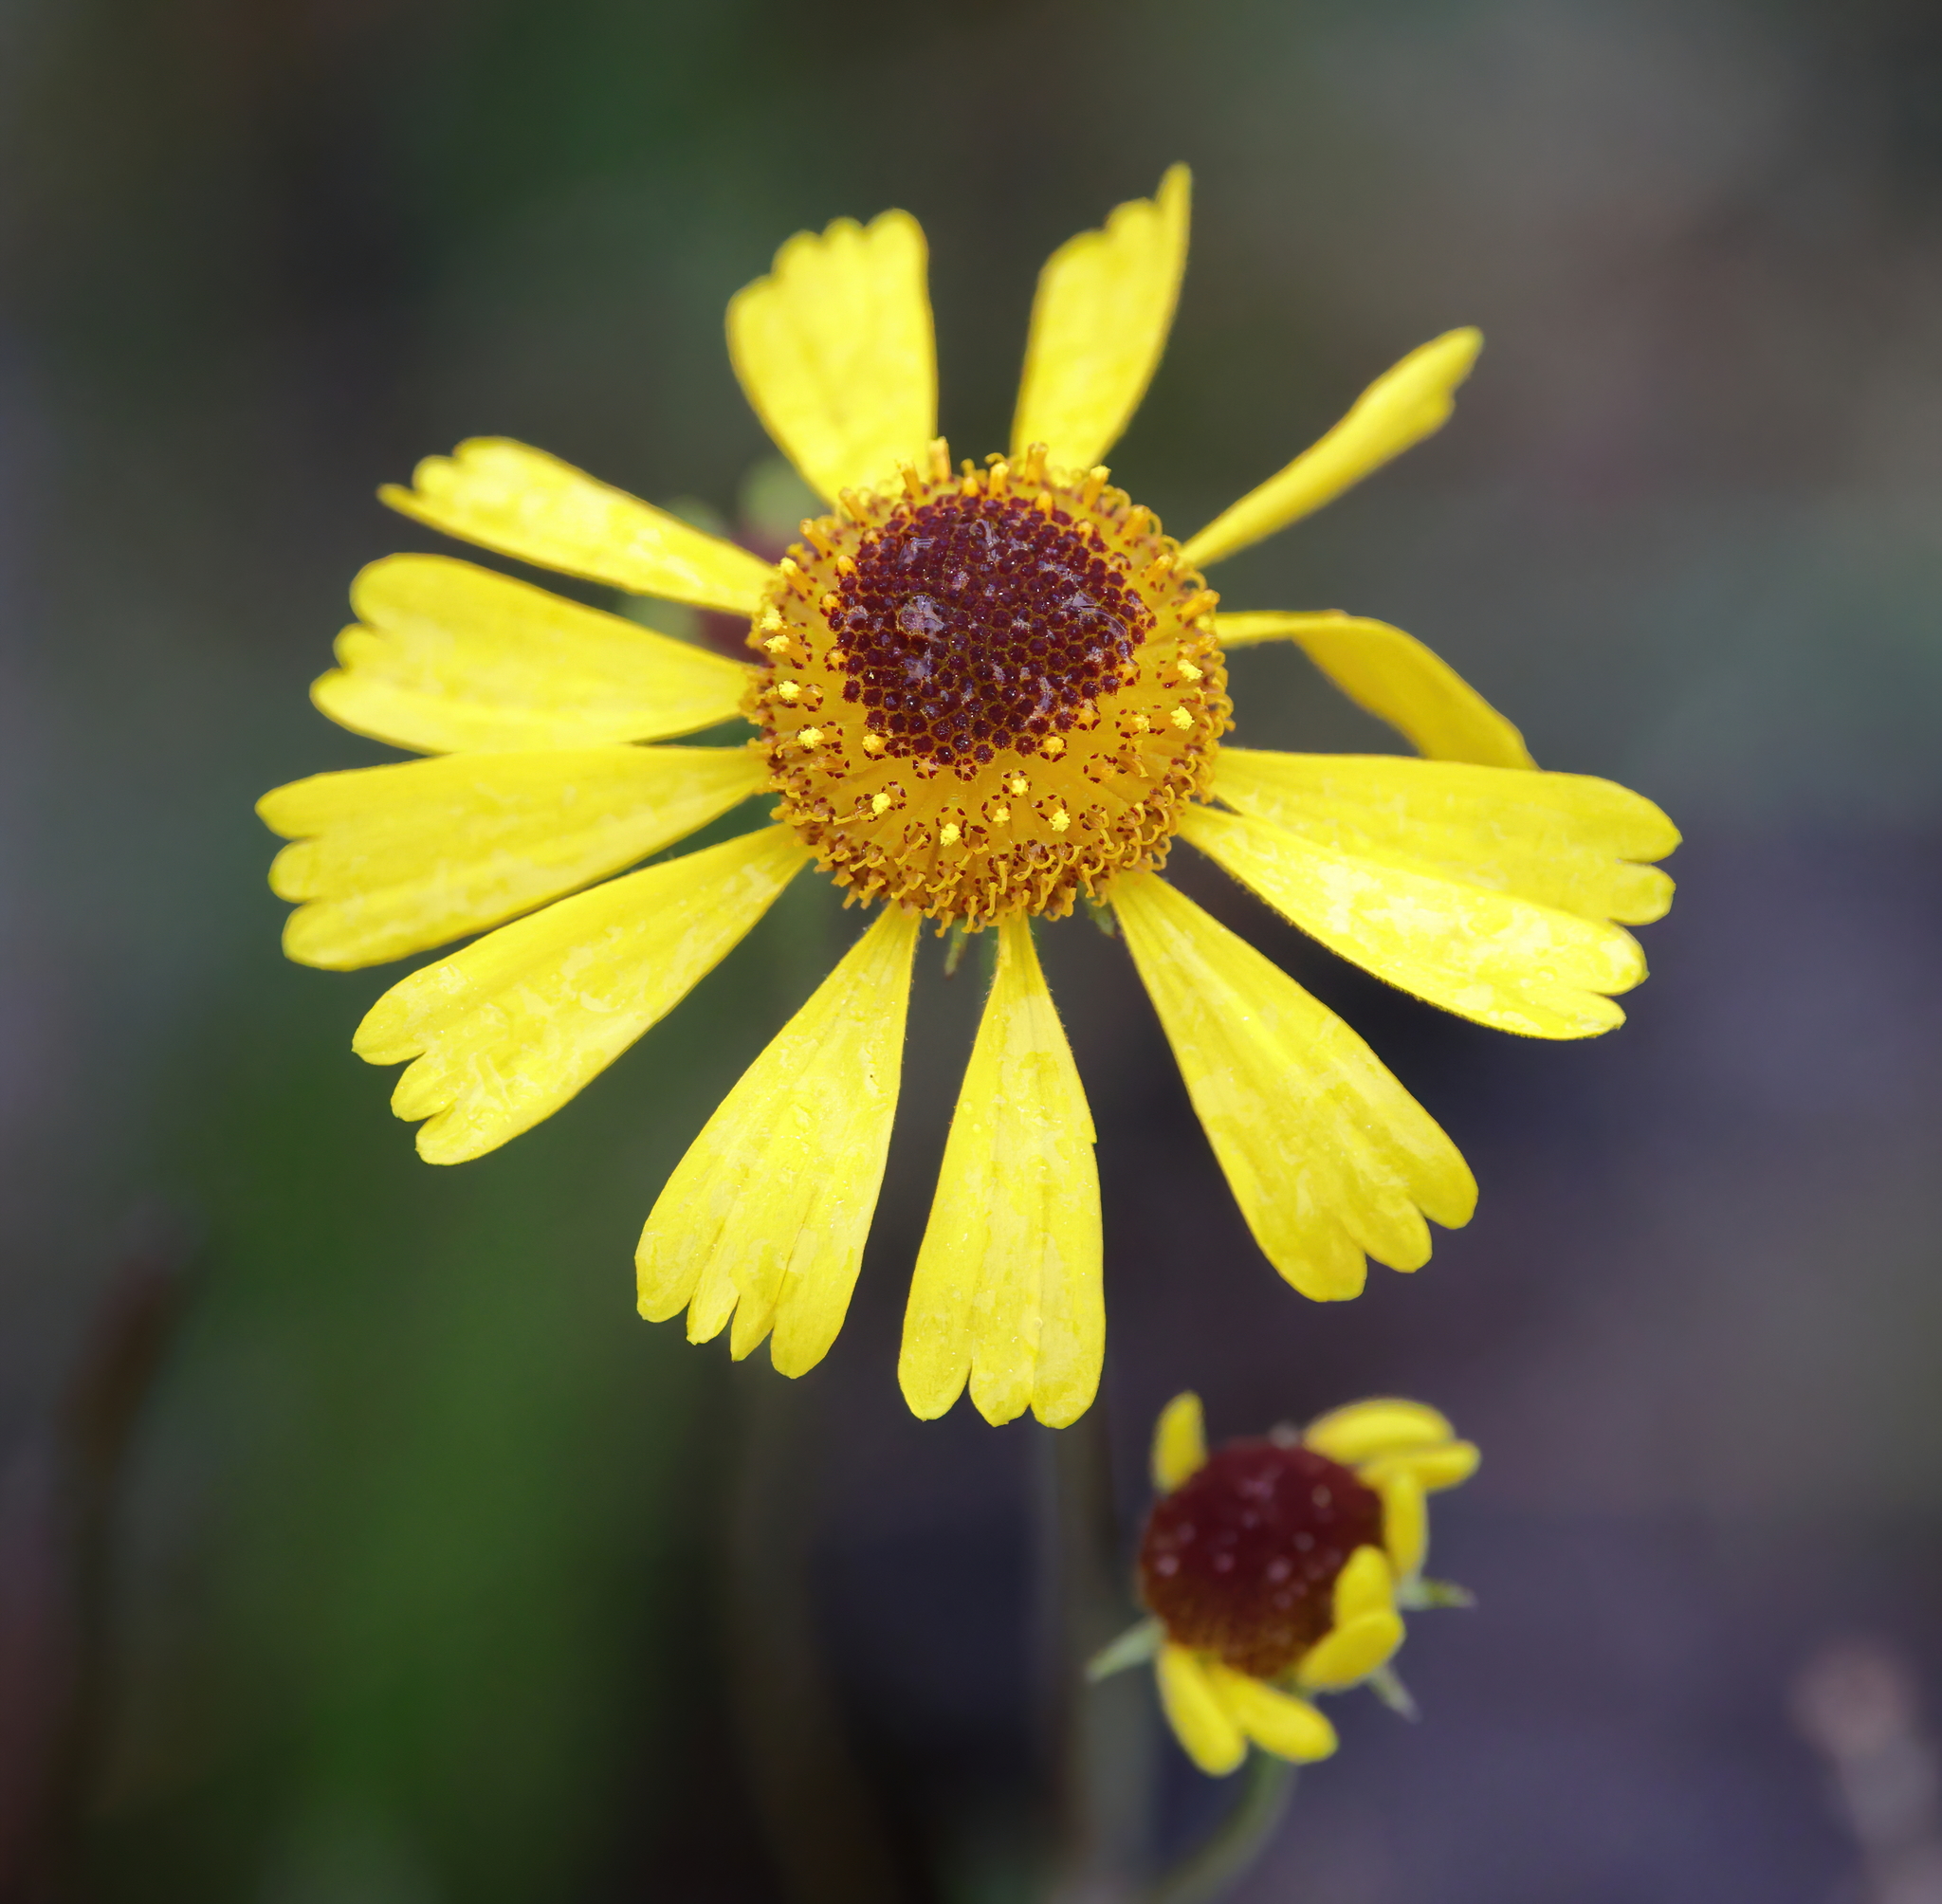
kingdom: Plantae
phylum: Tracheophyta
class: Magnoliopsida
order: Asterales
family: Asteraceae
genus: Helenium
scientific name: Helenium brevifolium
